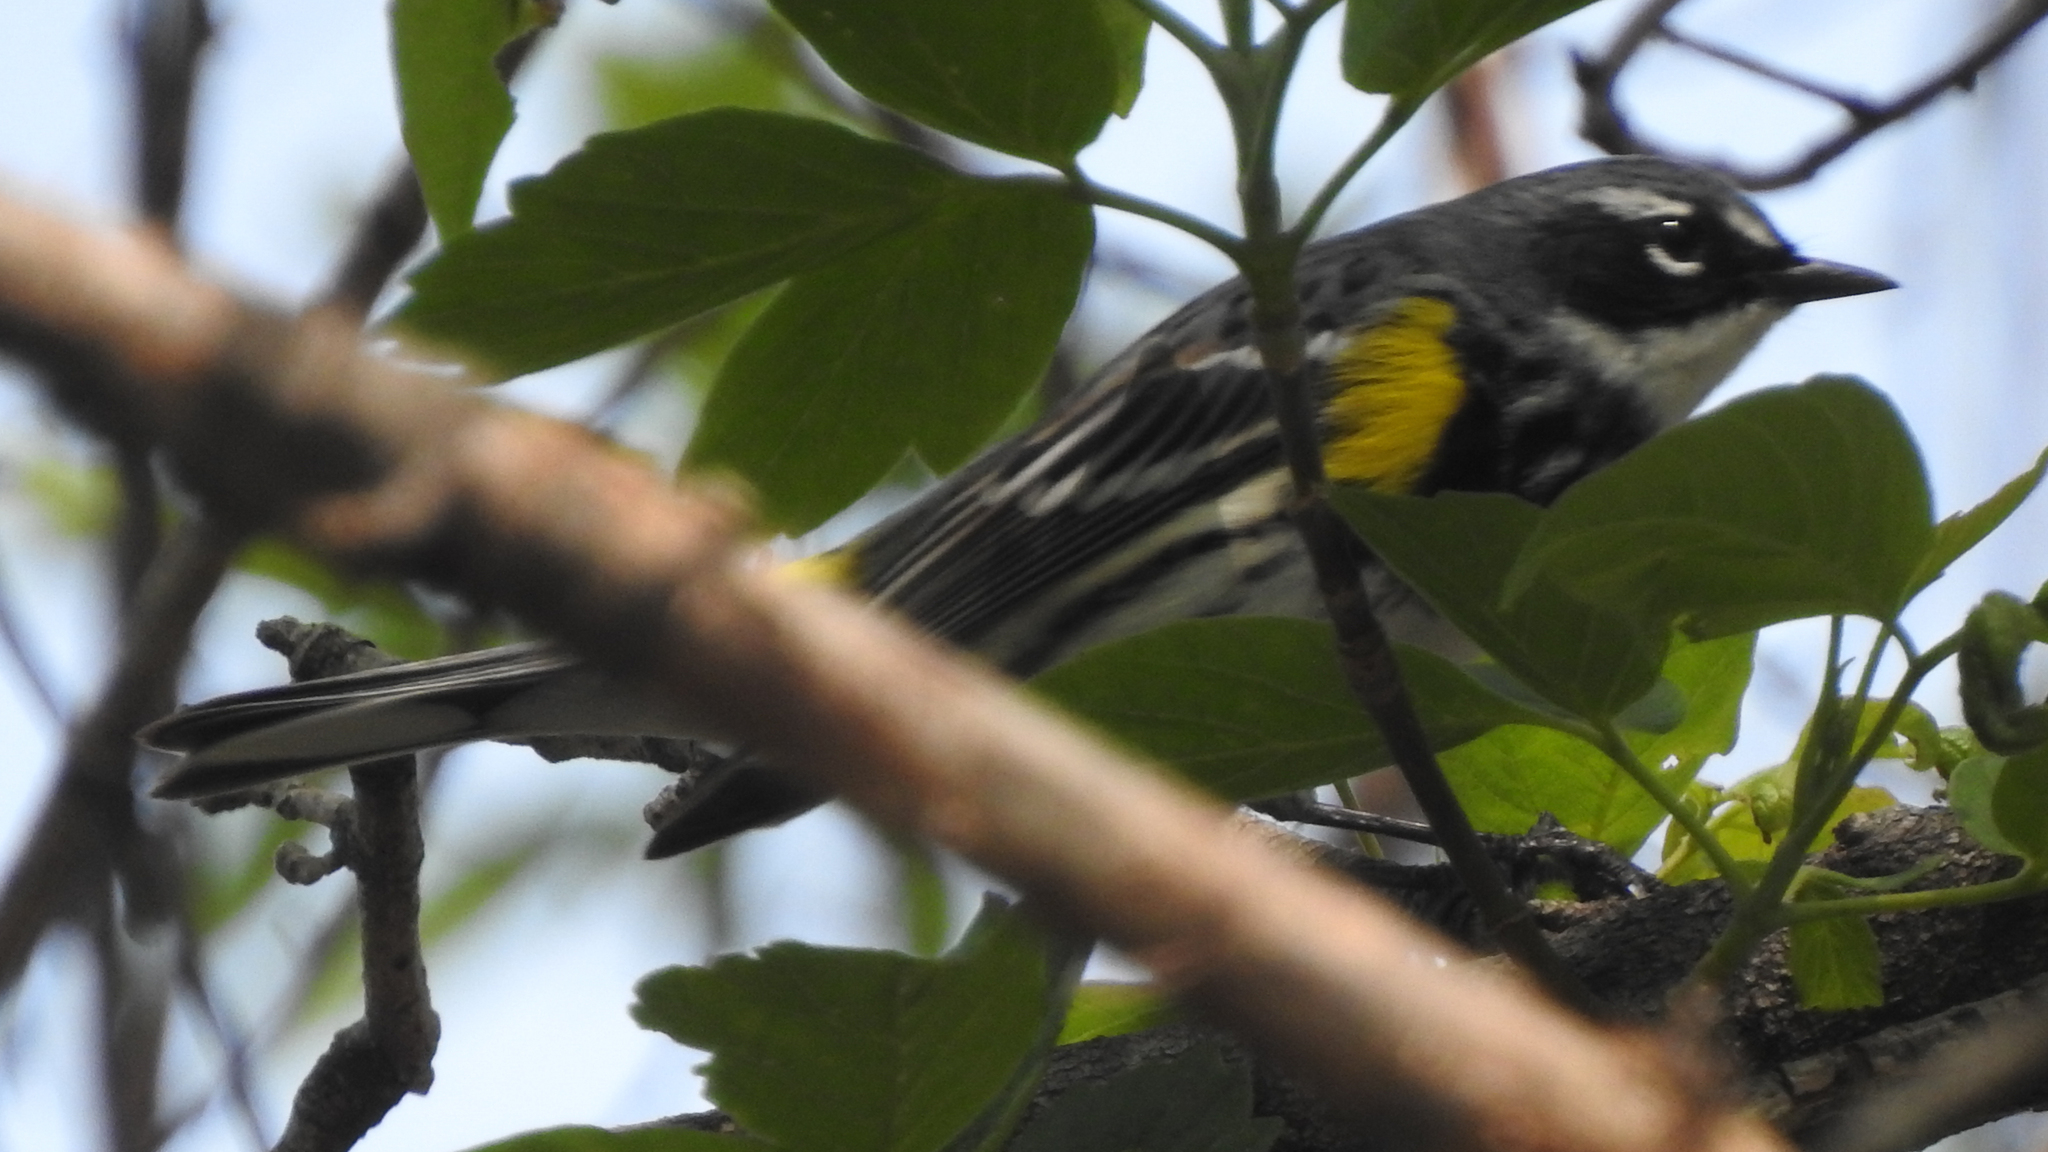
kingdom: Animalia
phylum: Chordata
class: Aves
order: Passeriformes
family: Parulidae
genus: Setophaga
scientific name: Setophaga coronata
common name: Myrtle warbler
